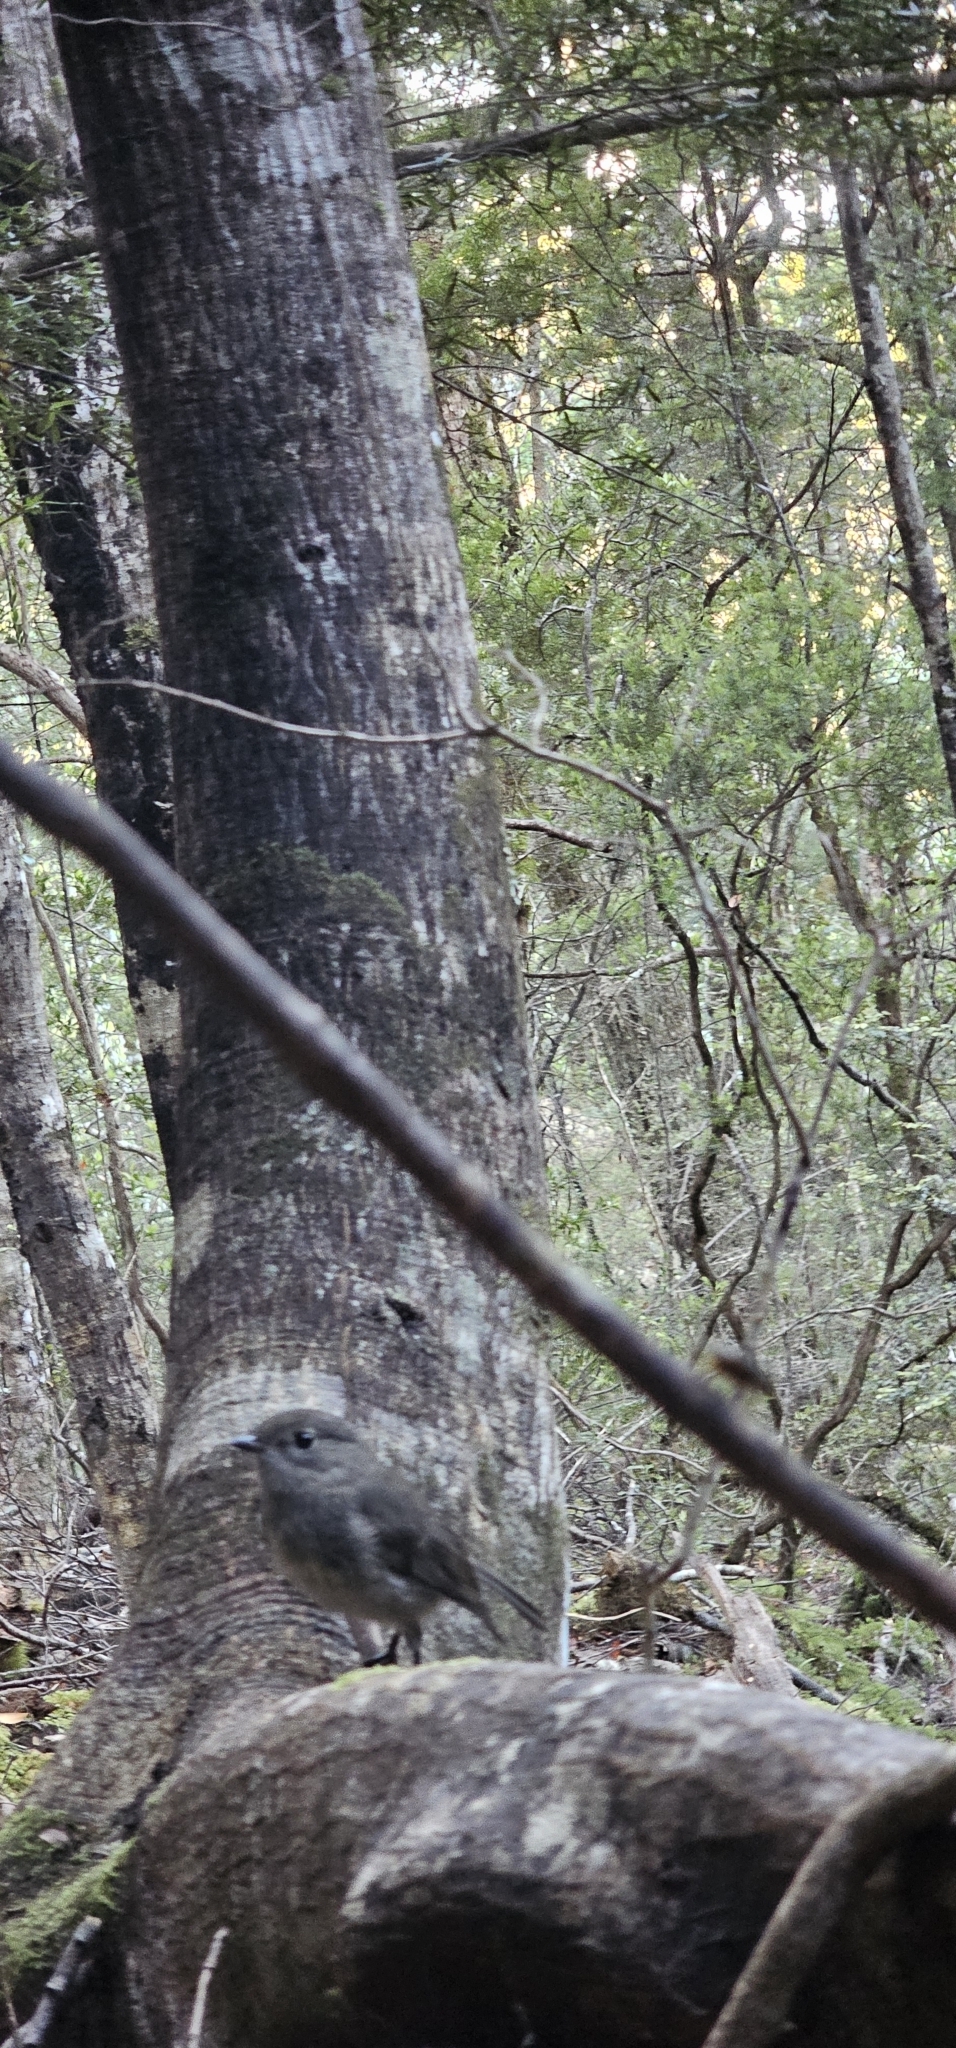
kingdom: Animalia
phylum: Chordata
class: Aves
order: Passeriformes
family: Petroicidae
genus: Petroica
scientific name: Petroica australis
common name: New zealand robin
